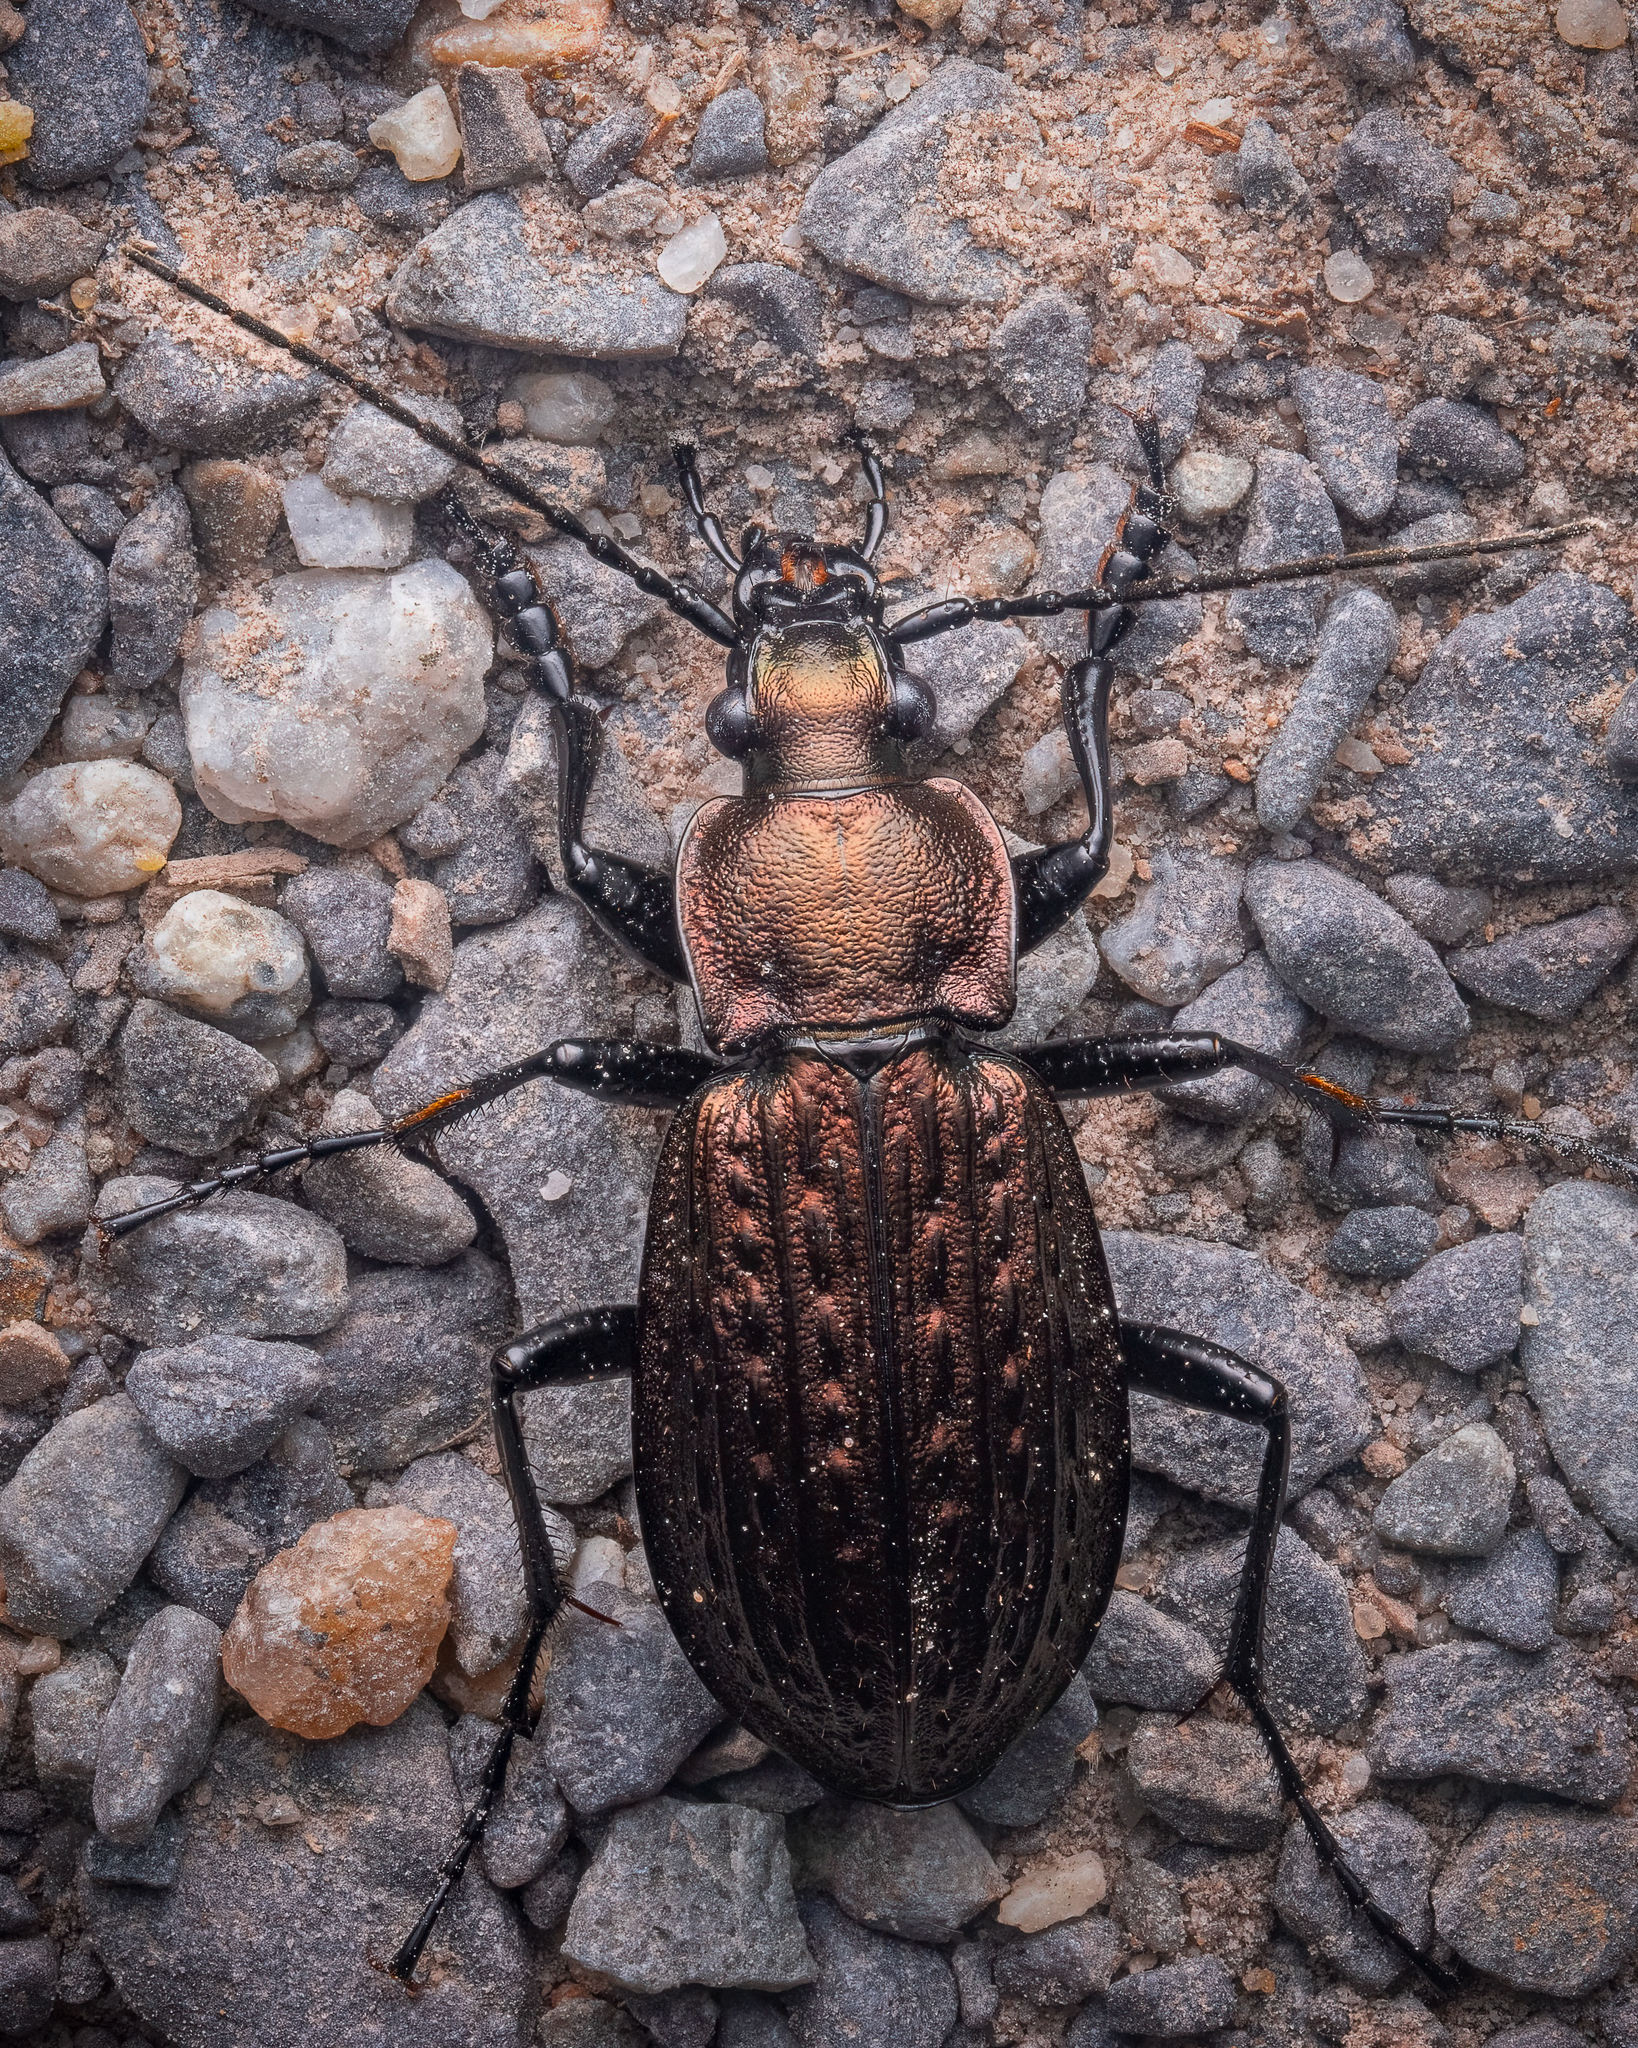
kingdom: Animalia
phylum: Arthropoda
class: Insecta
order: Coleoptera
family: Carabidae
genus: Carabus
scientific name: Carabus granulatus
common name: Granulate ground beetle
